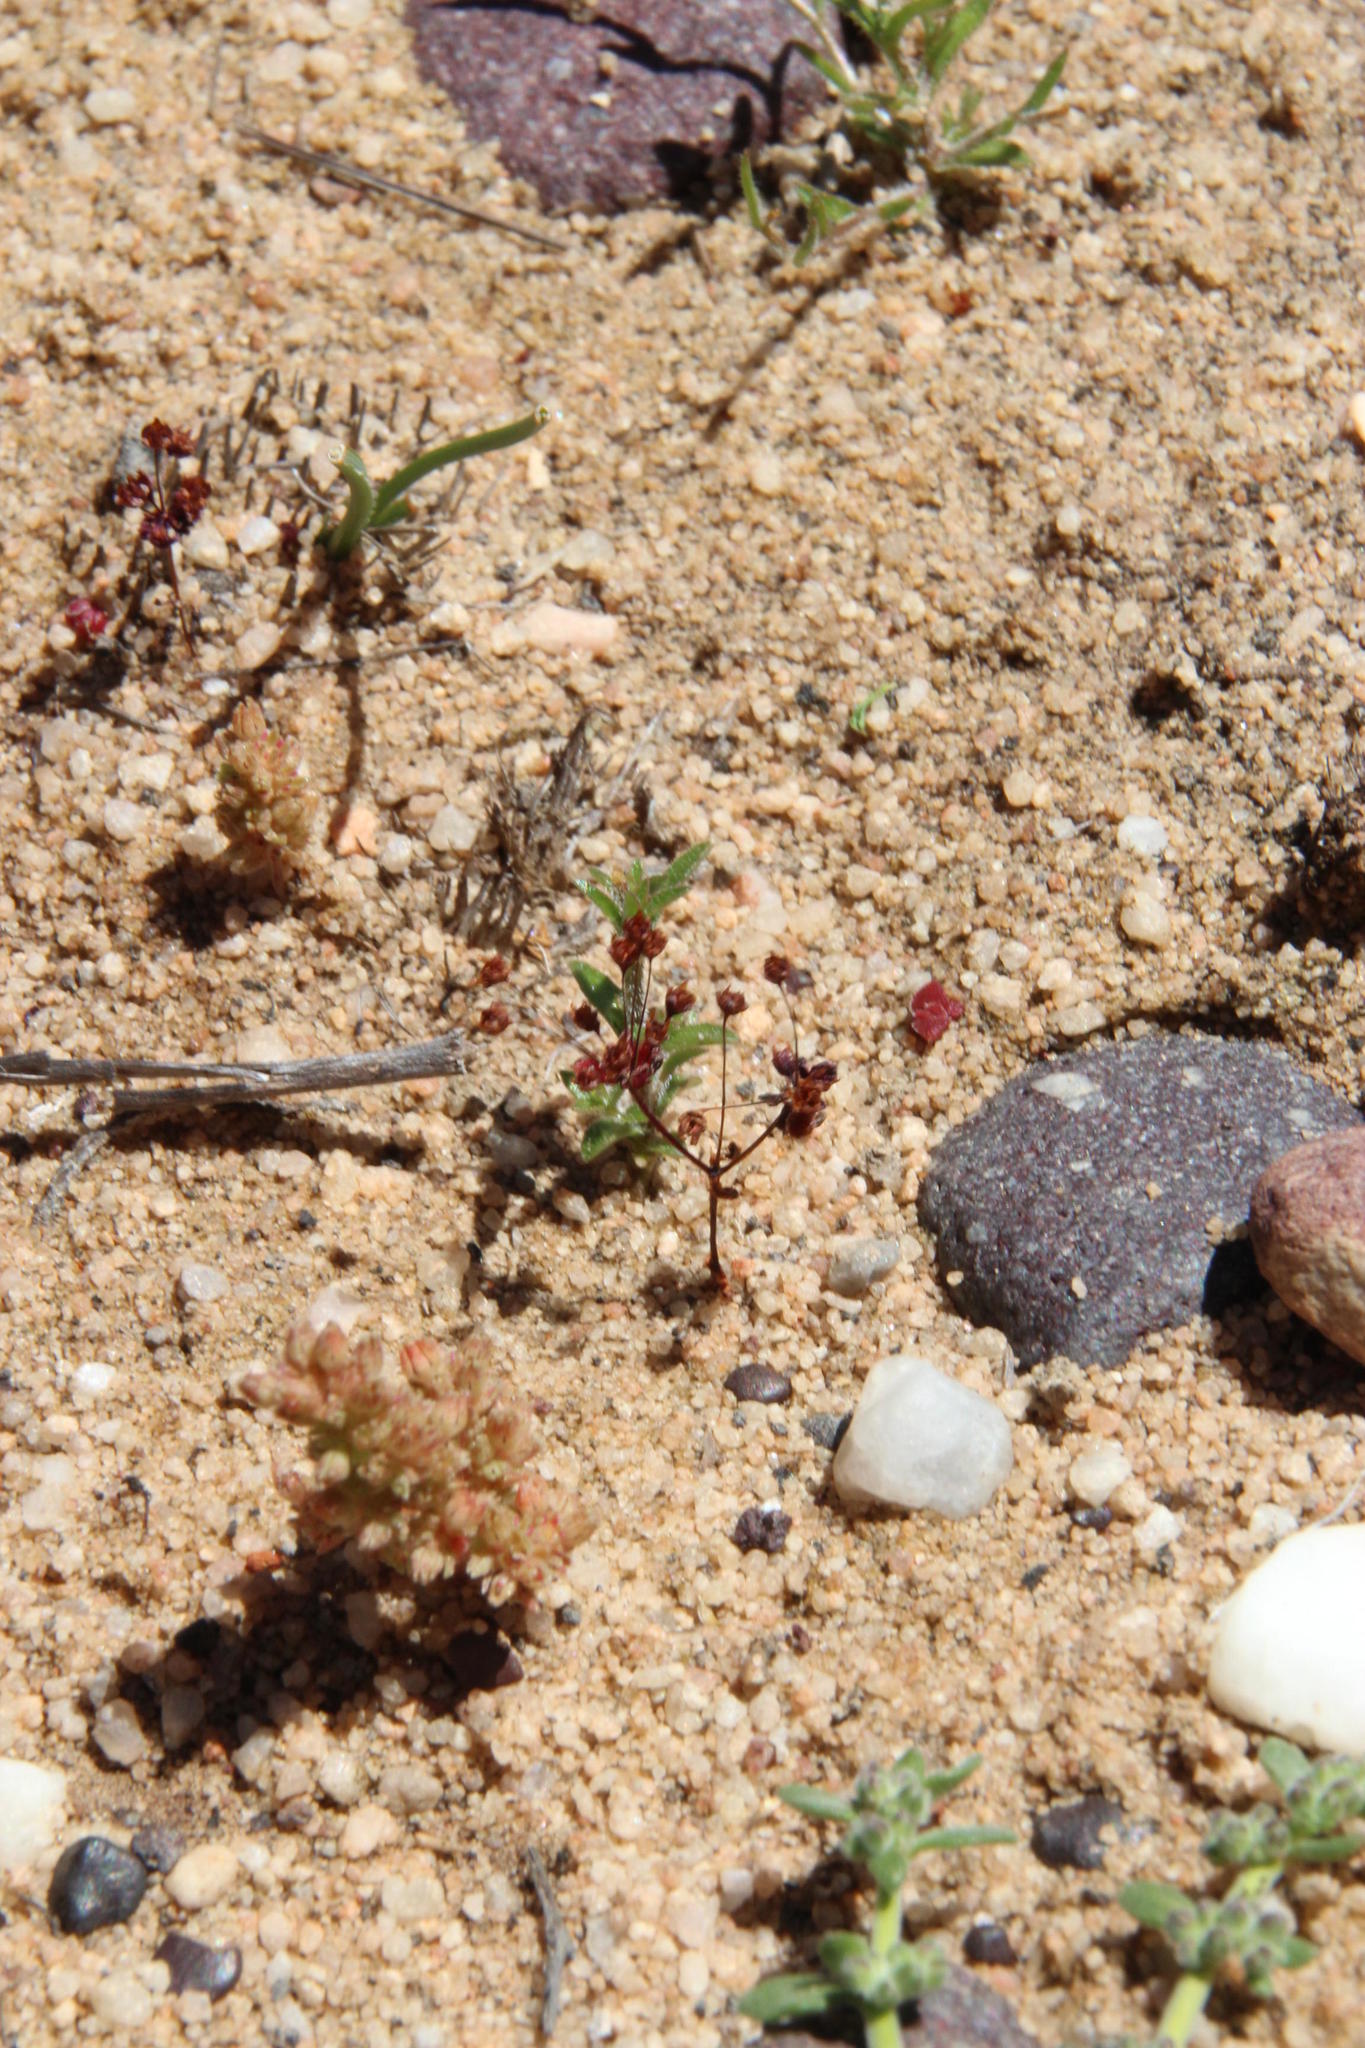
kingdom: Plantae
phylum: Tracheophyta
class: Magnoliopsida
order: Saxifragales
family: Crassulaceae
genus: Crassula
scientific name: Crassula umbellata
